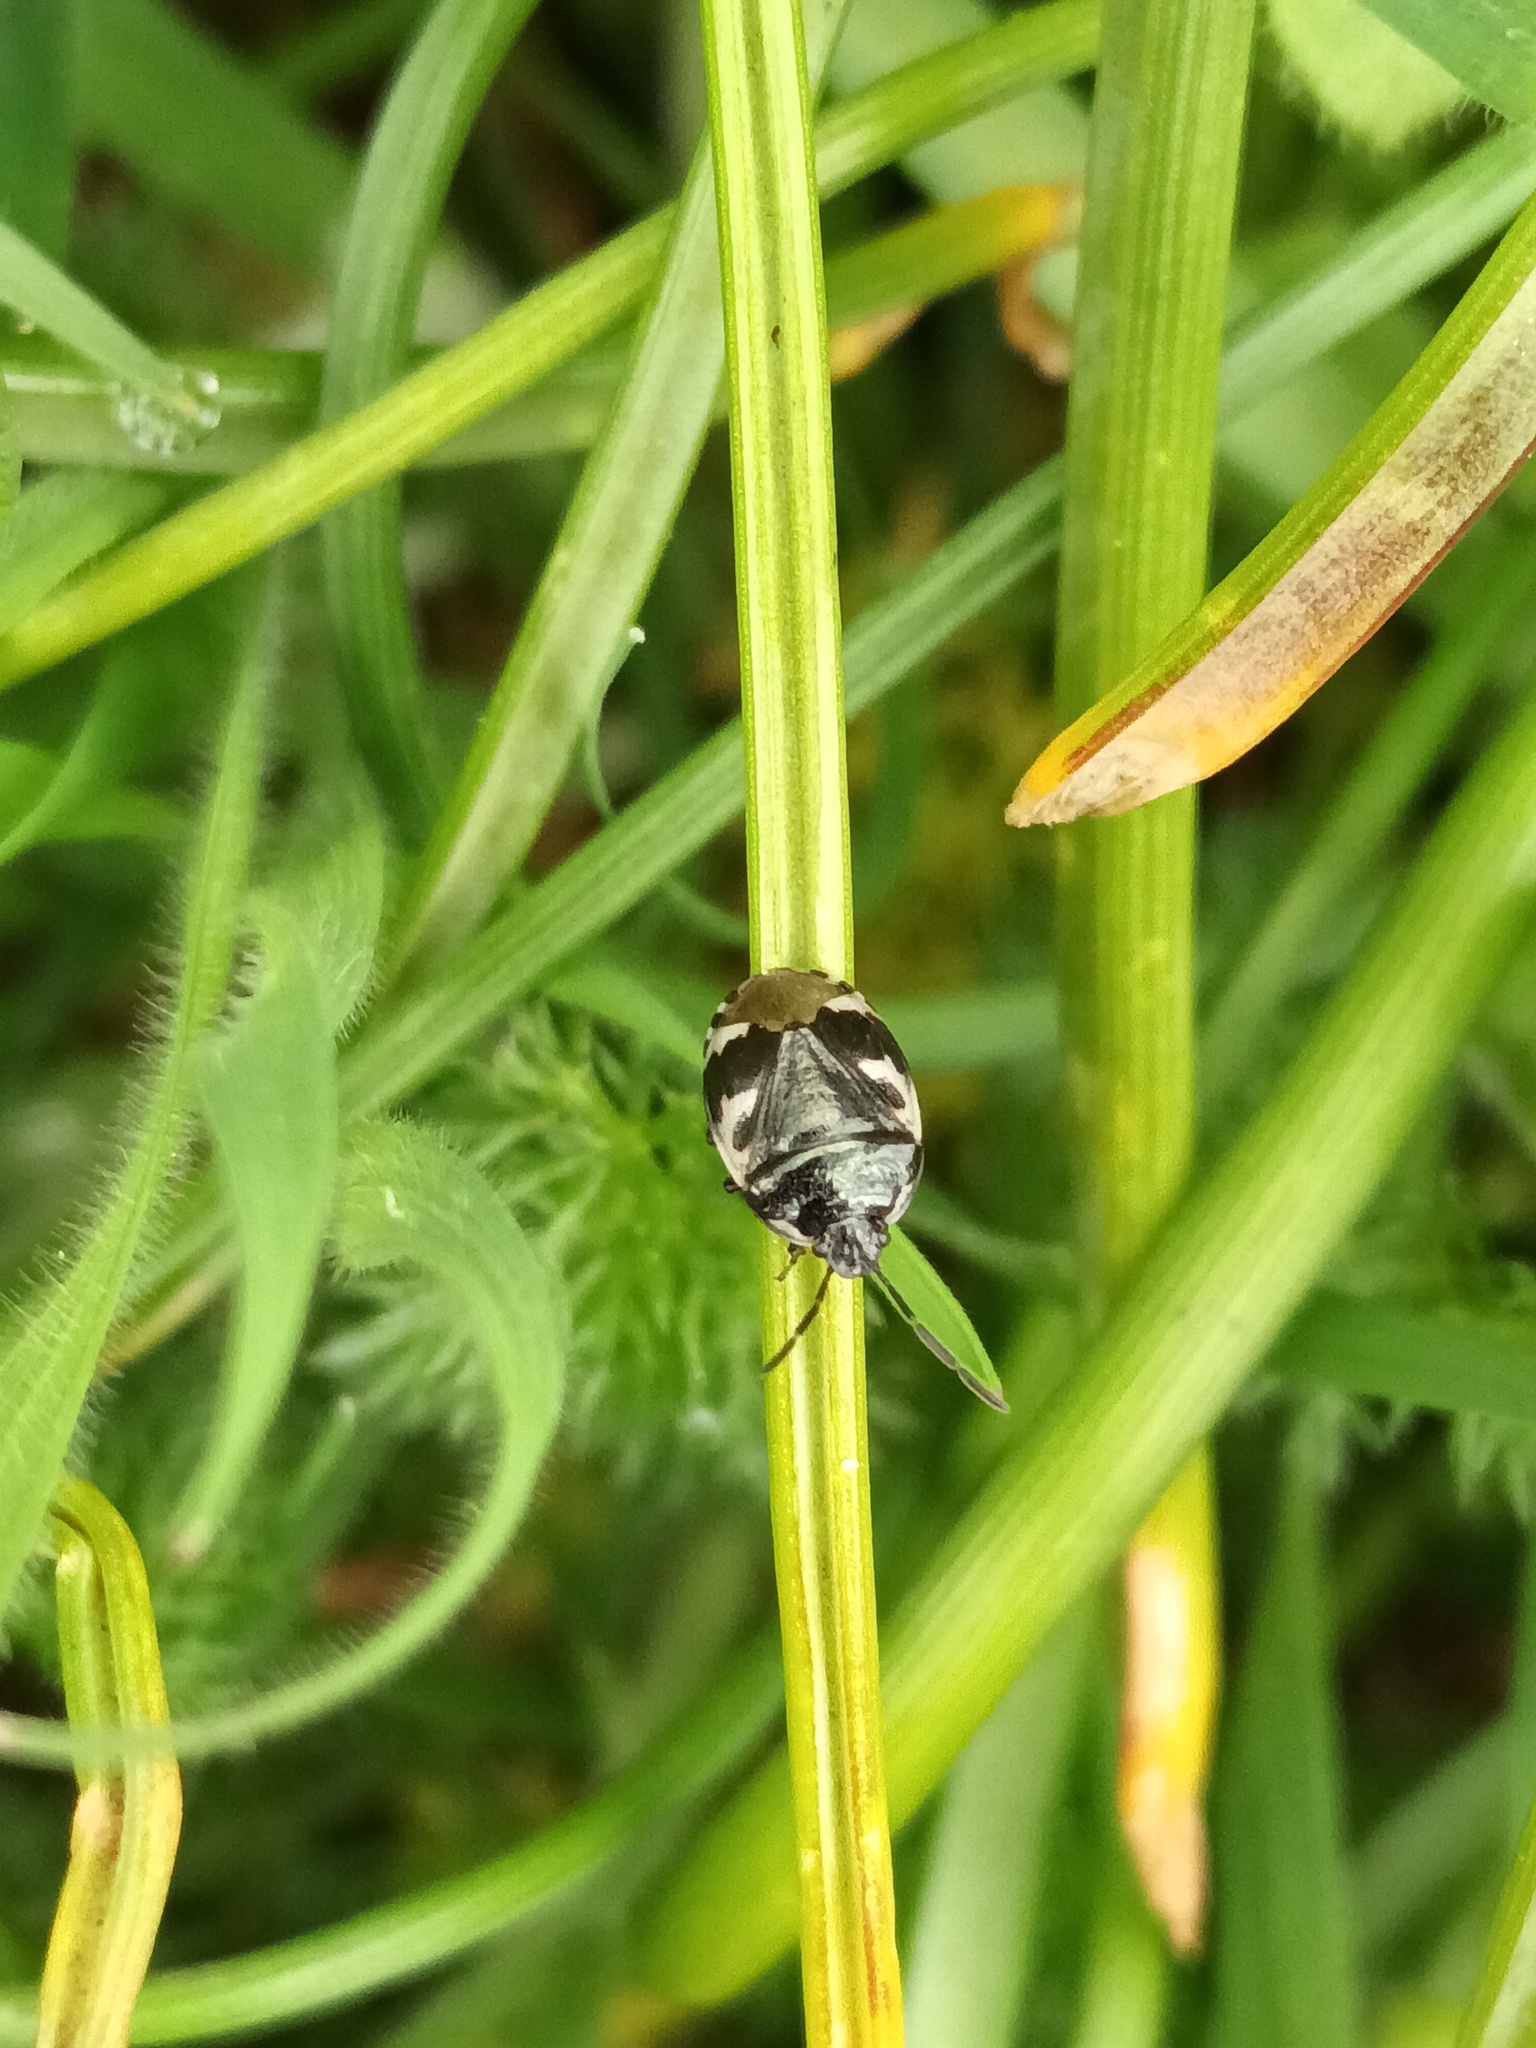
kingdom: Animalia
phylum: Arthropoda
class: Insecta
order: Hemiptera
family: Cydnidae
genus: Tritomegas
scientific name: Tritomegas bicolor
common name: Pied shieldbug
